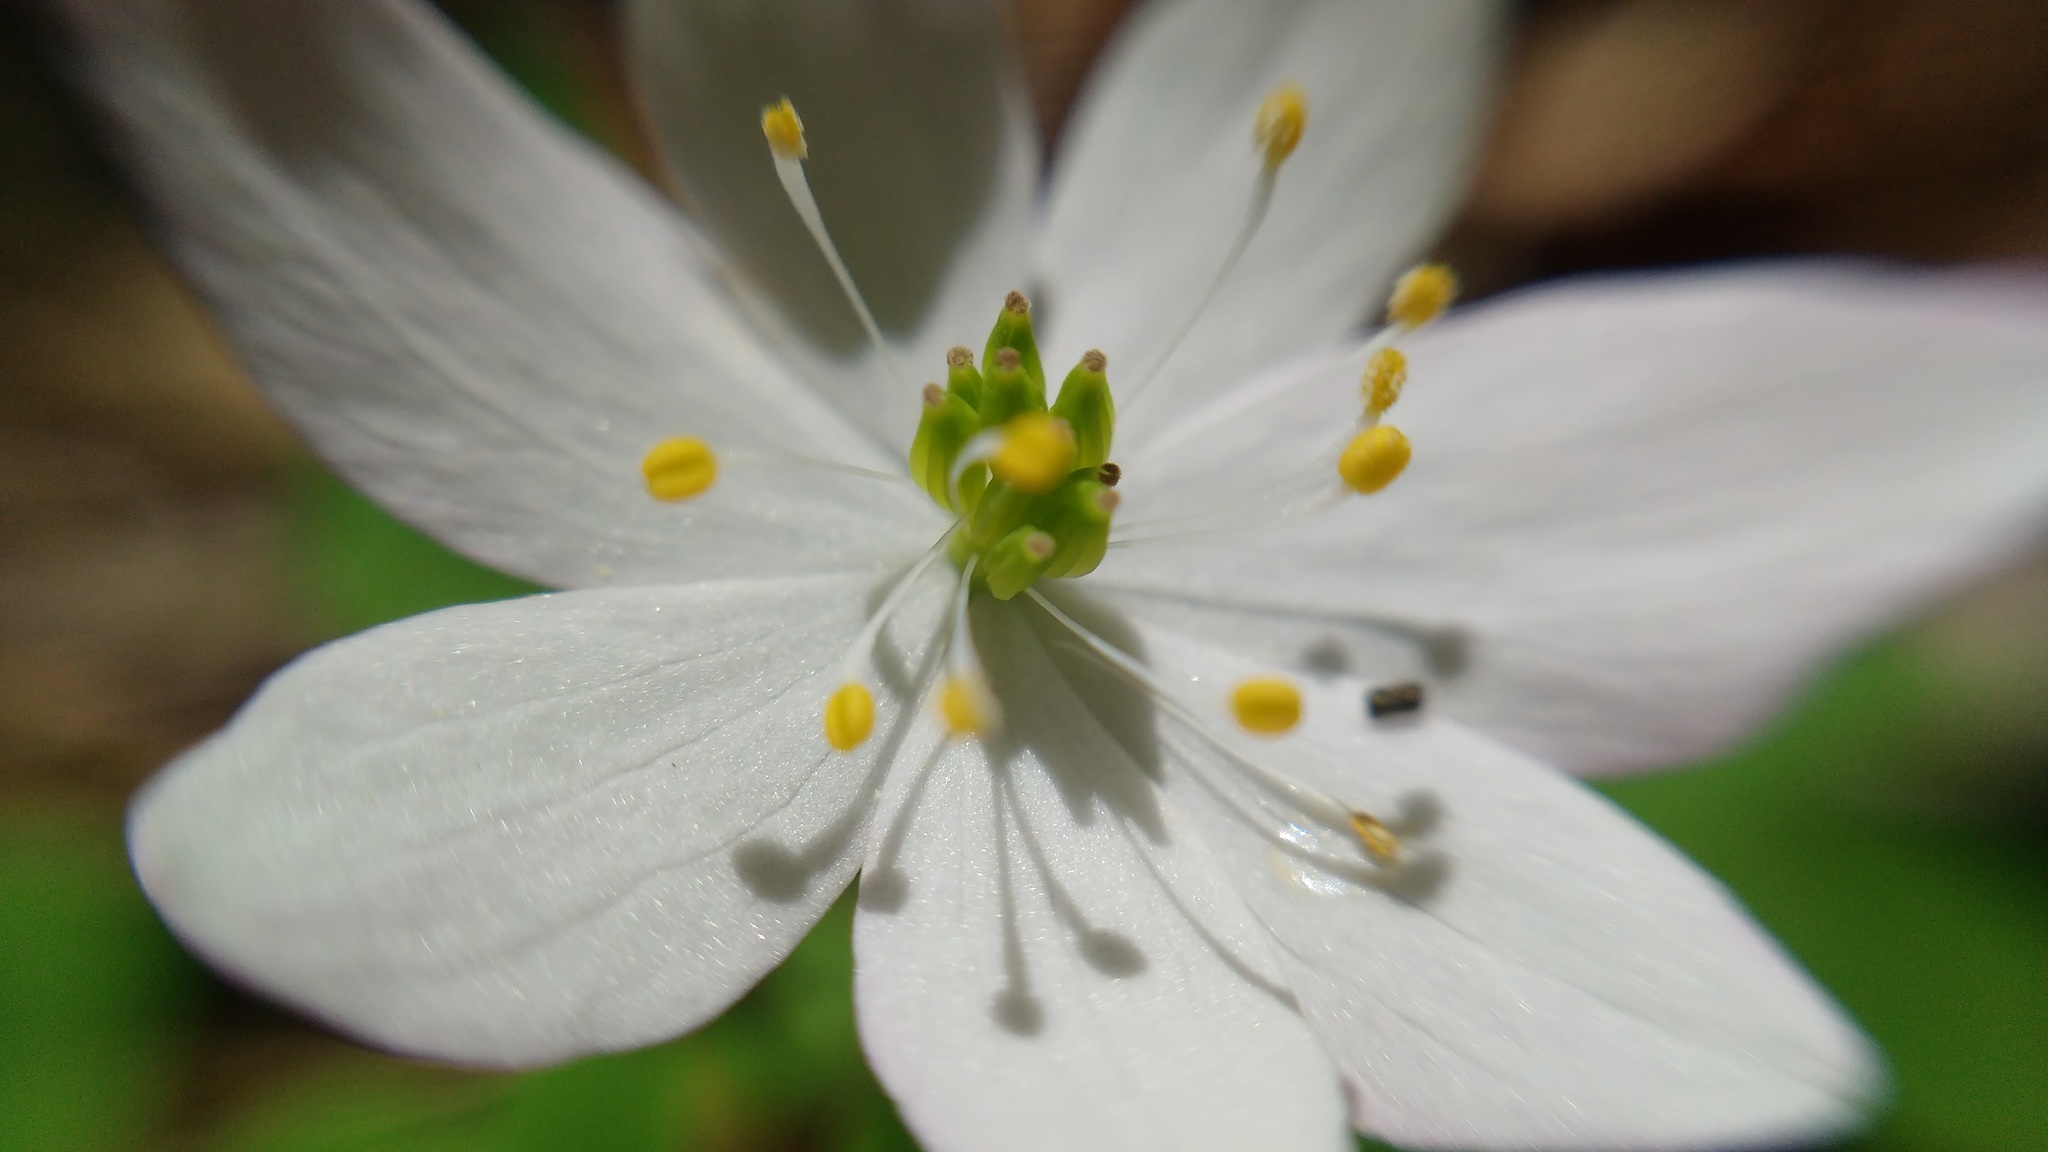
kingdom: Plantae
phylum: Tracheophyta
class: Magnoliopsida
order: Ranunculales
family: Ranunculaceae
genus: Thalictrum
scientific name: Thalictrum thalictroides
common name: Rue-anemone
